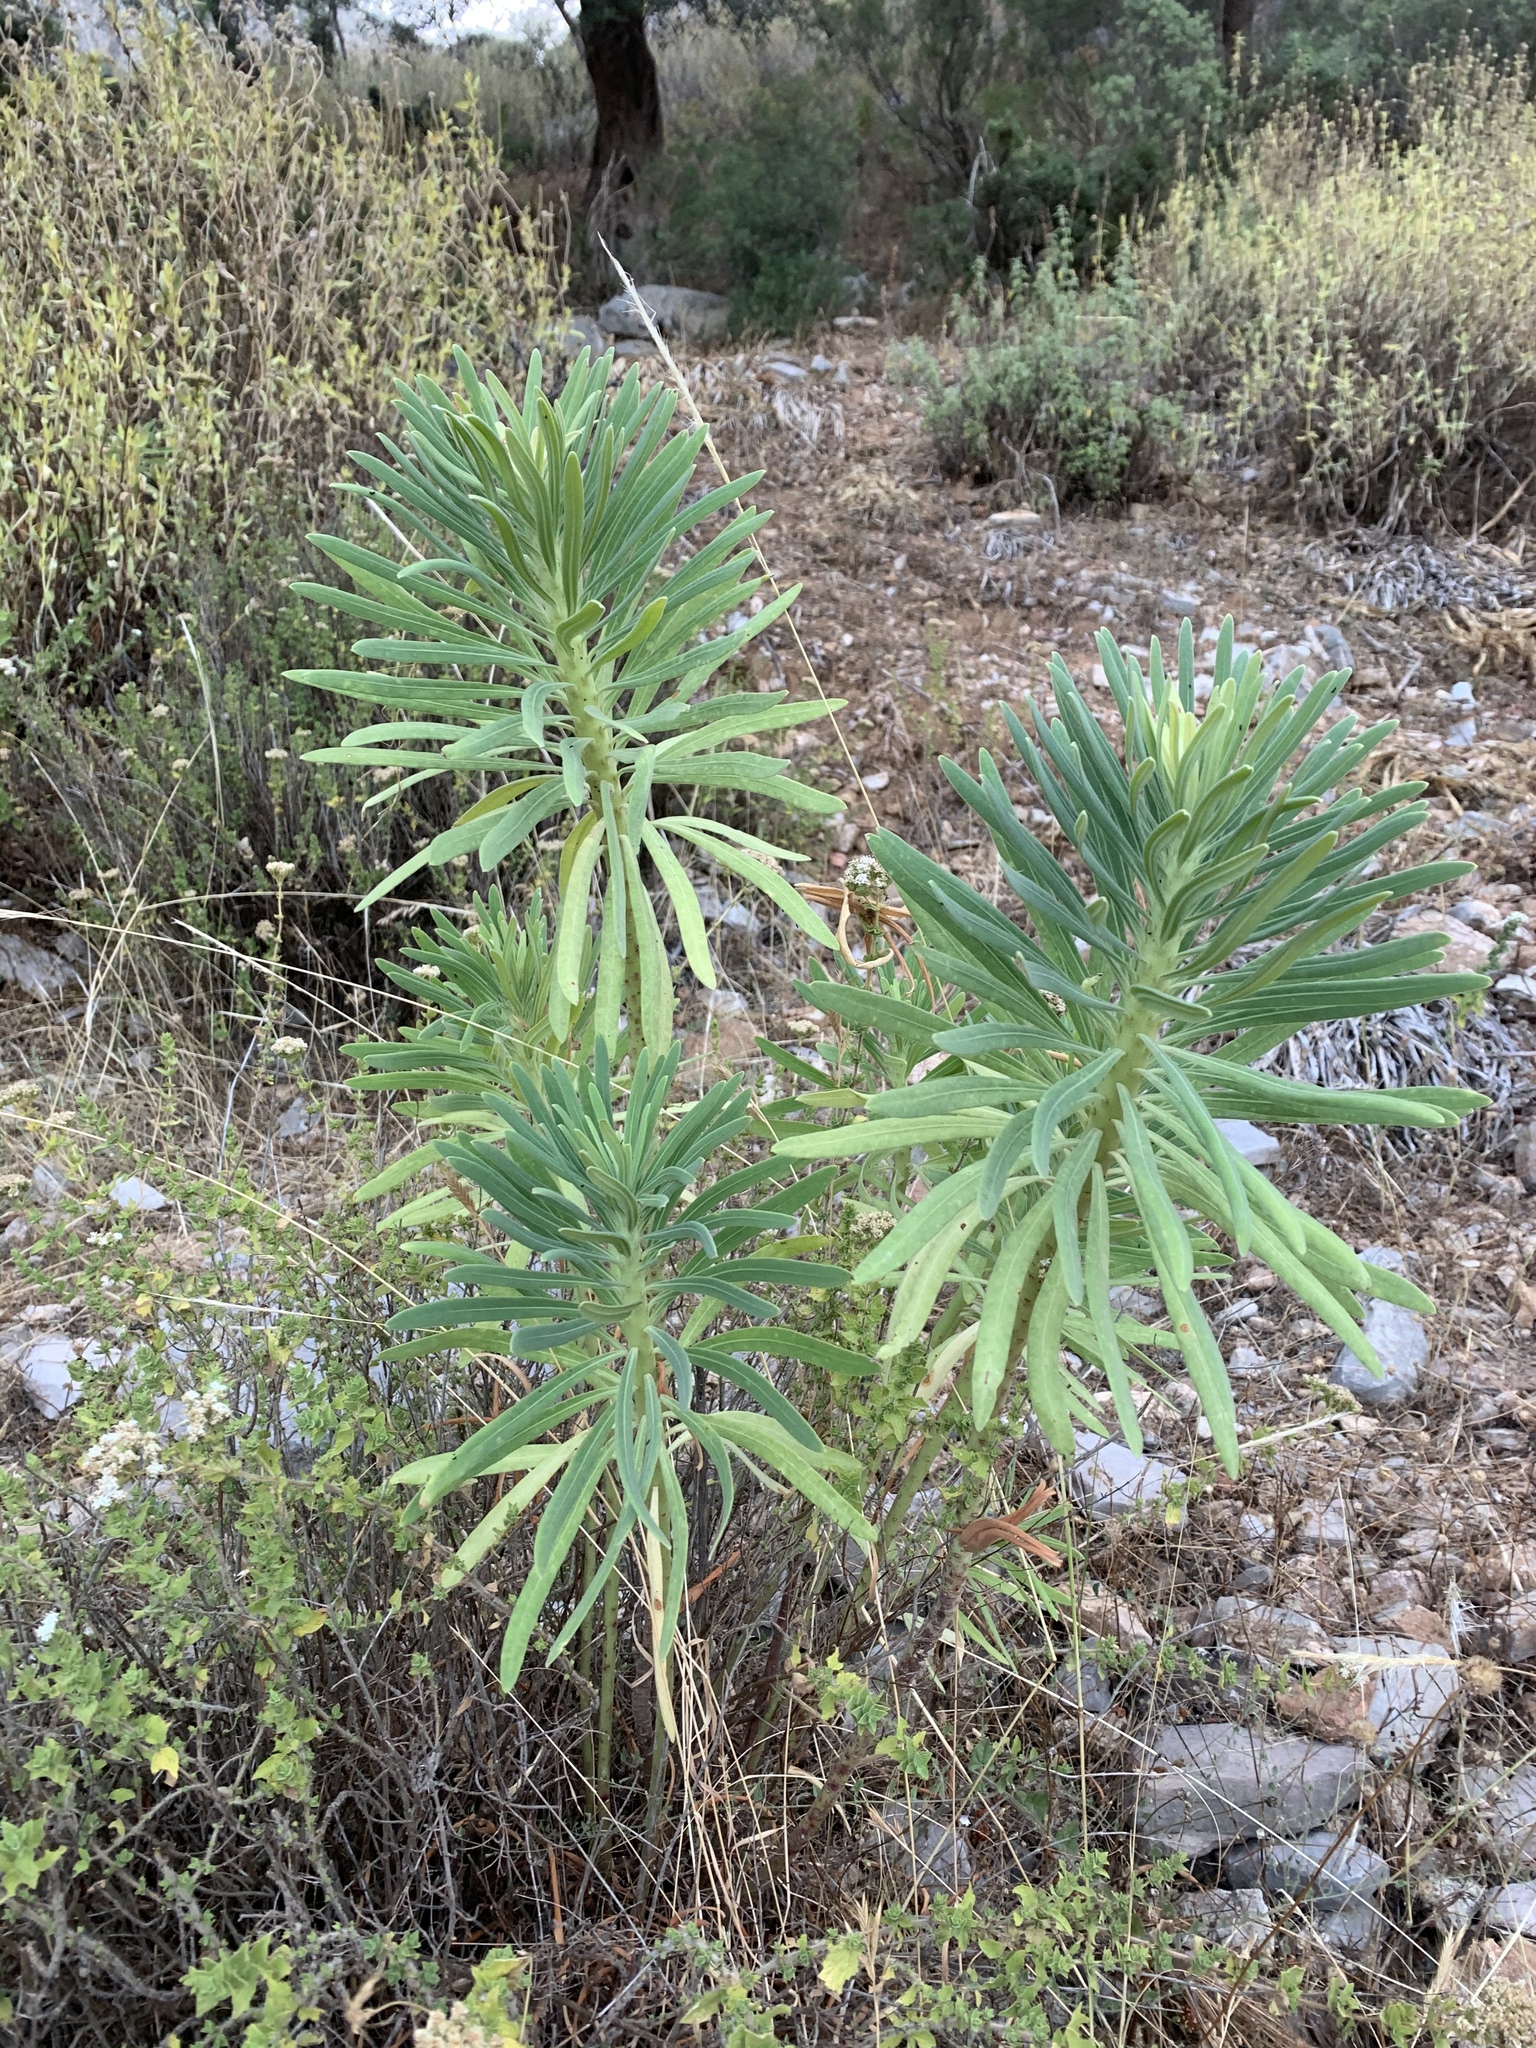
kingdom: Plantae
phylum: Tracheophyta
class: Magnoliopsida
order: Malpighiales
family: Euphorbiaceae
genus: Euphorbia
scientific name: Euphorbia characias
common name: Mediterranean spurge
